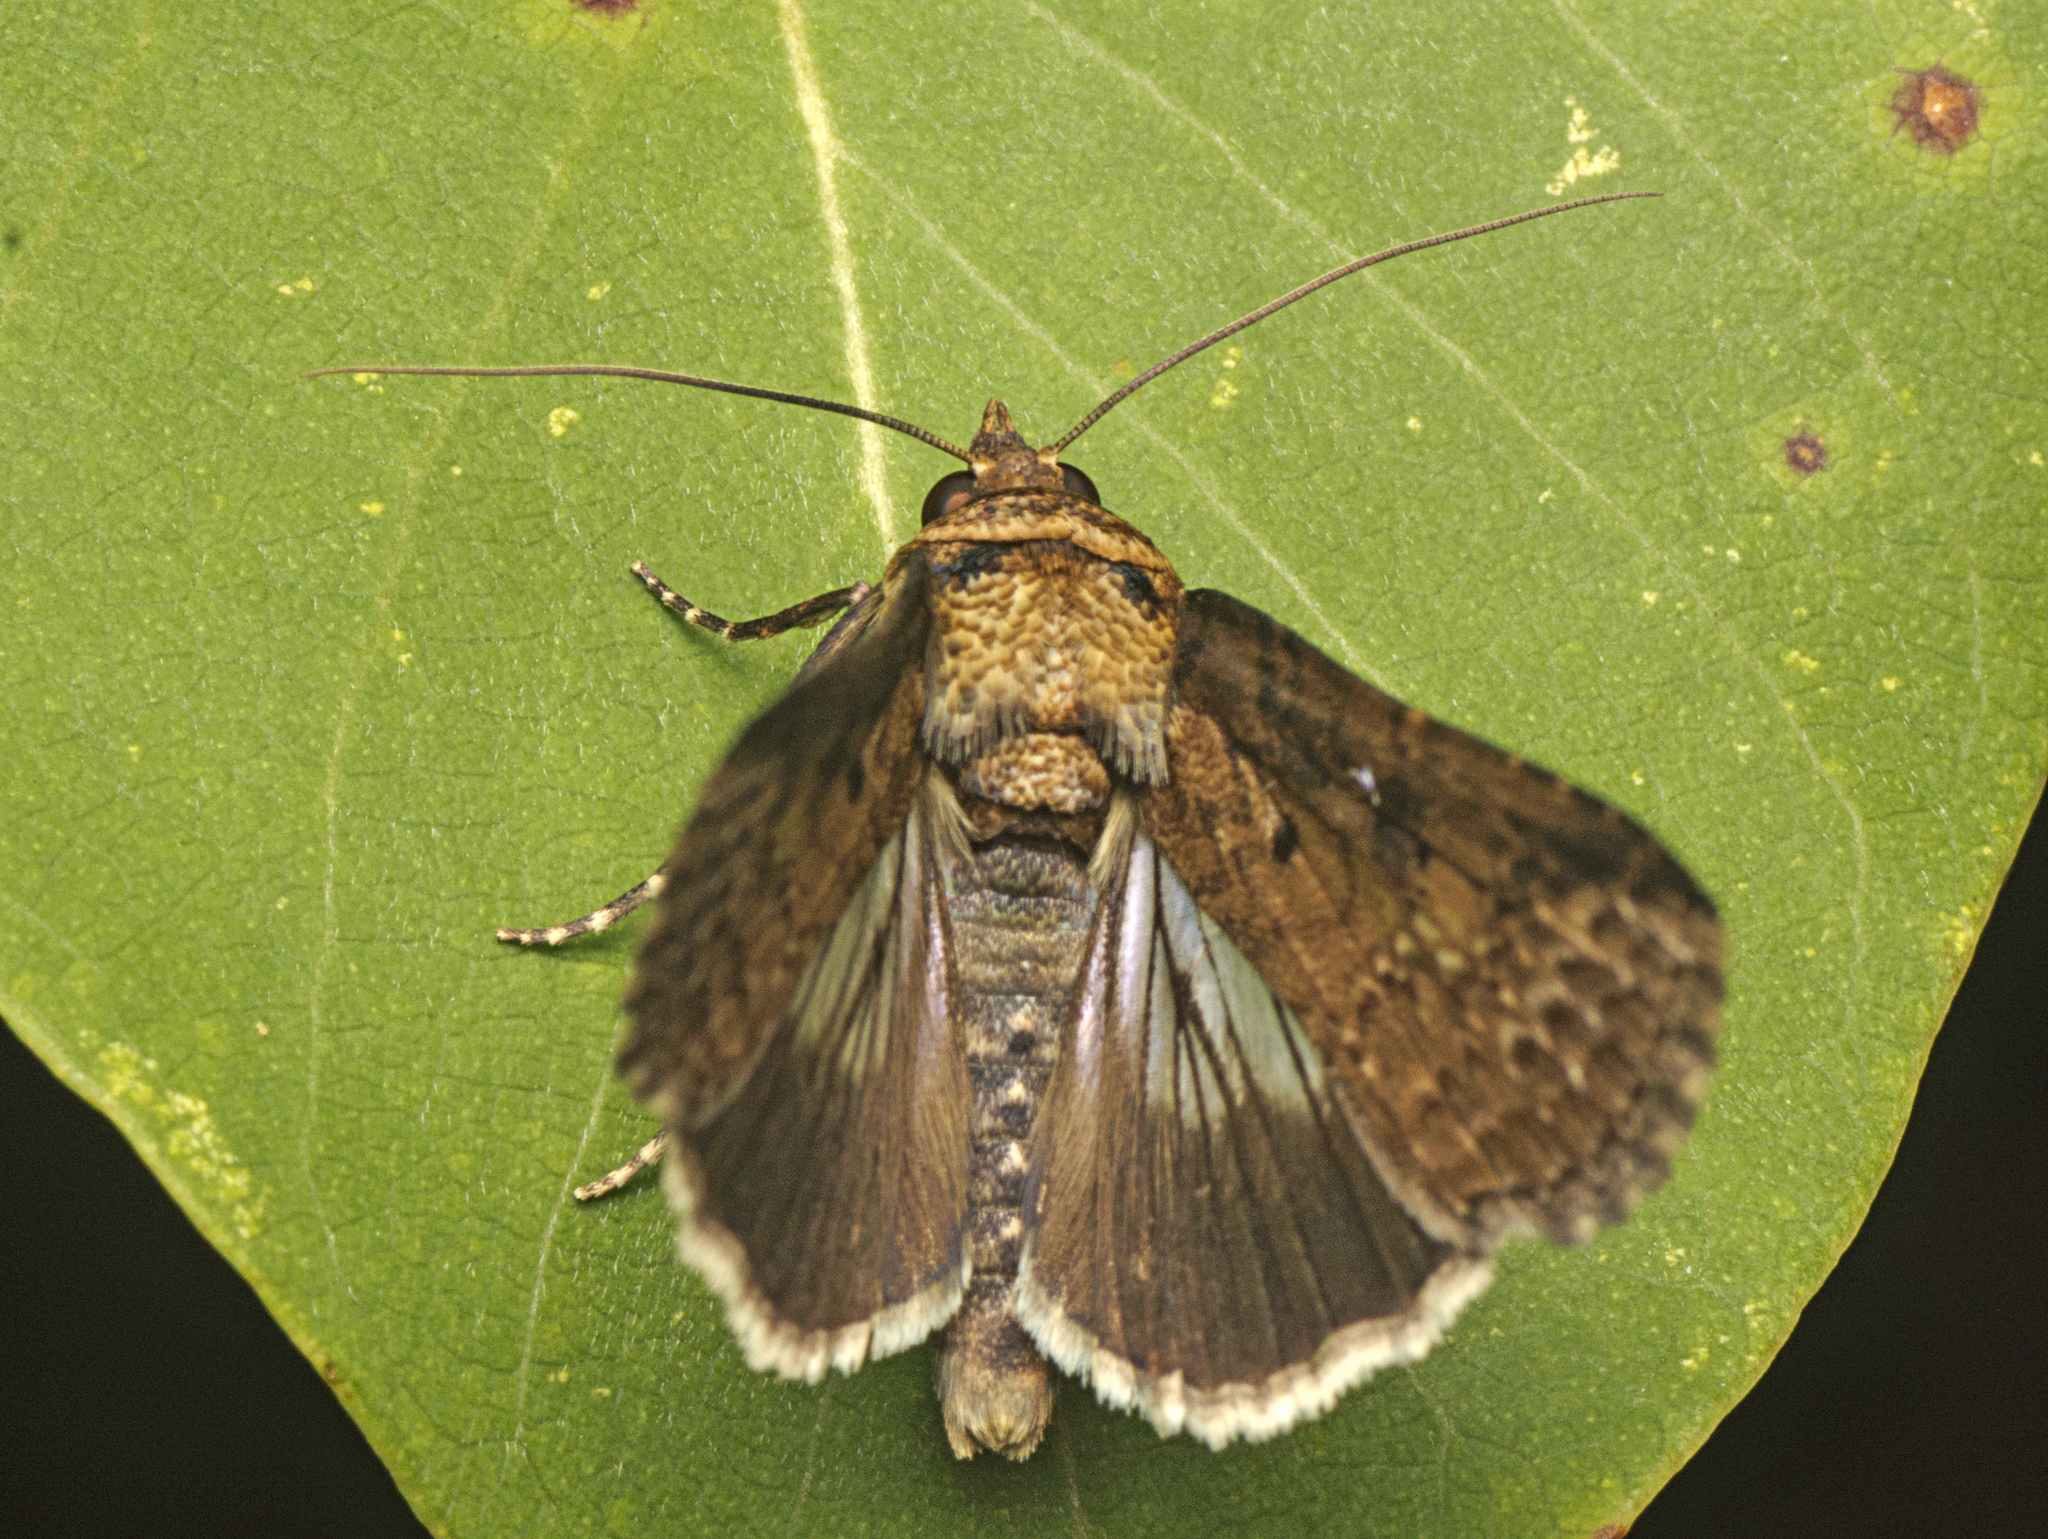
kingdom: Animalia
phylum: Arthropoda
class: Insecta
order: Lepidoptera
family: Euteliidae
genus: Lophoptera
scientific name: Lophoptera vittigera
